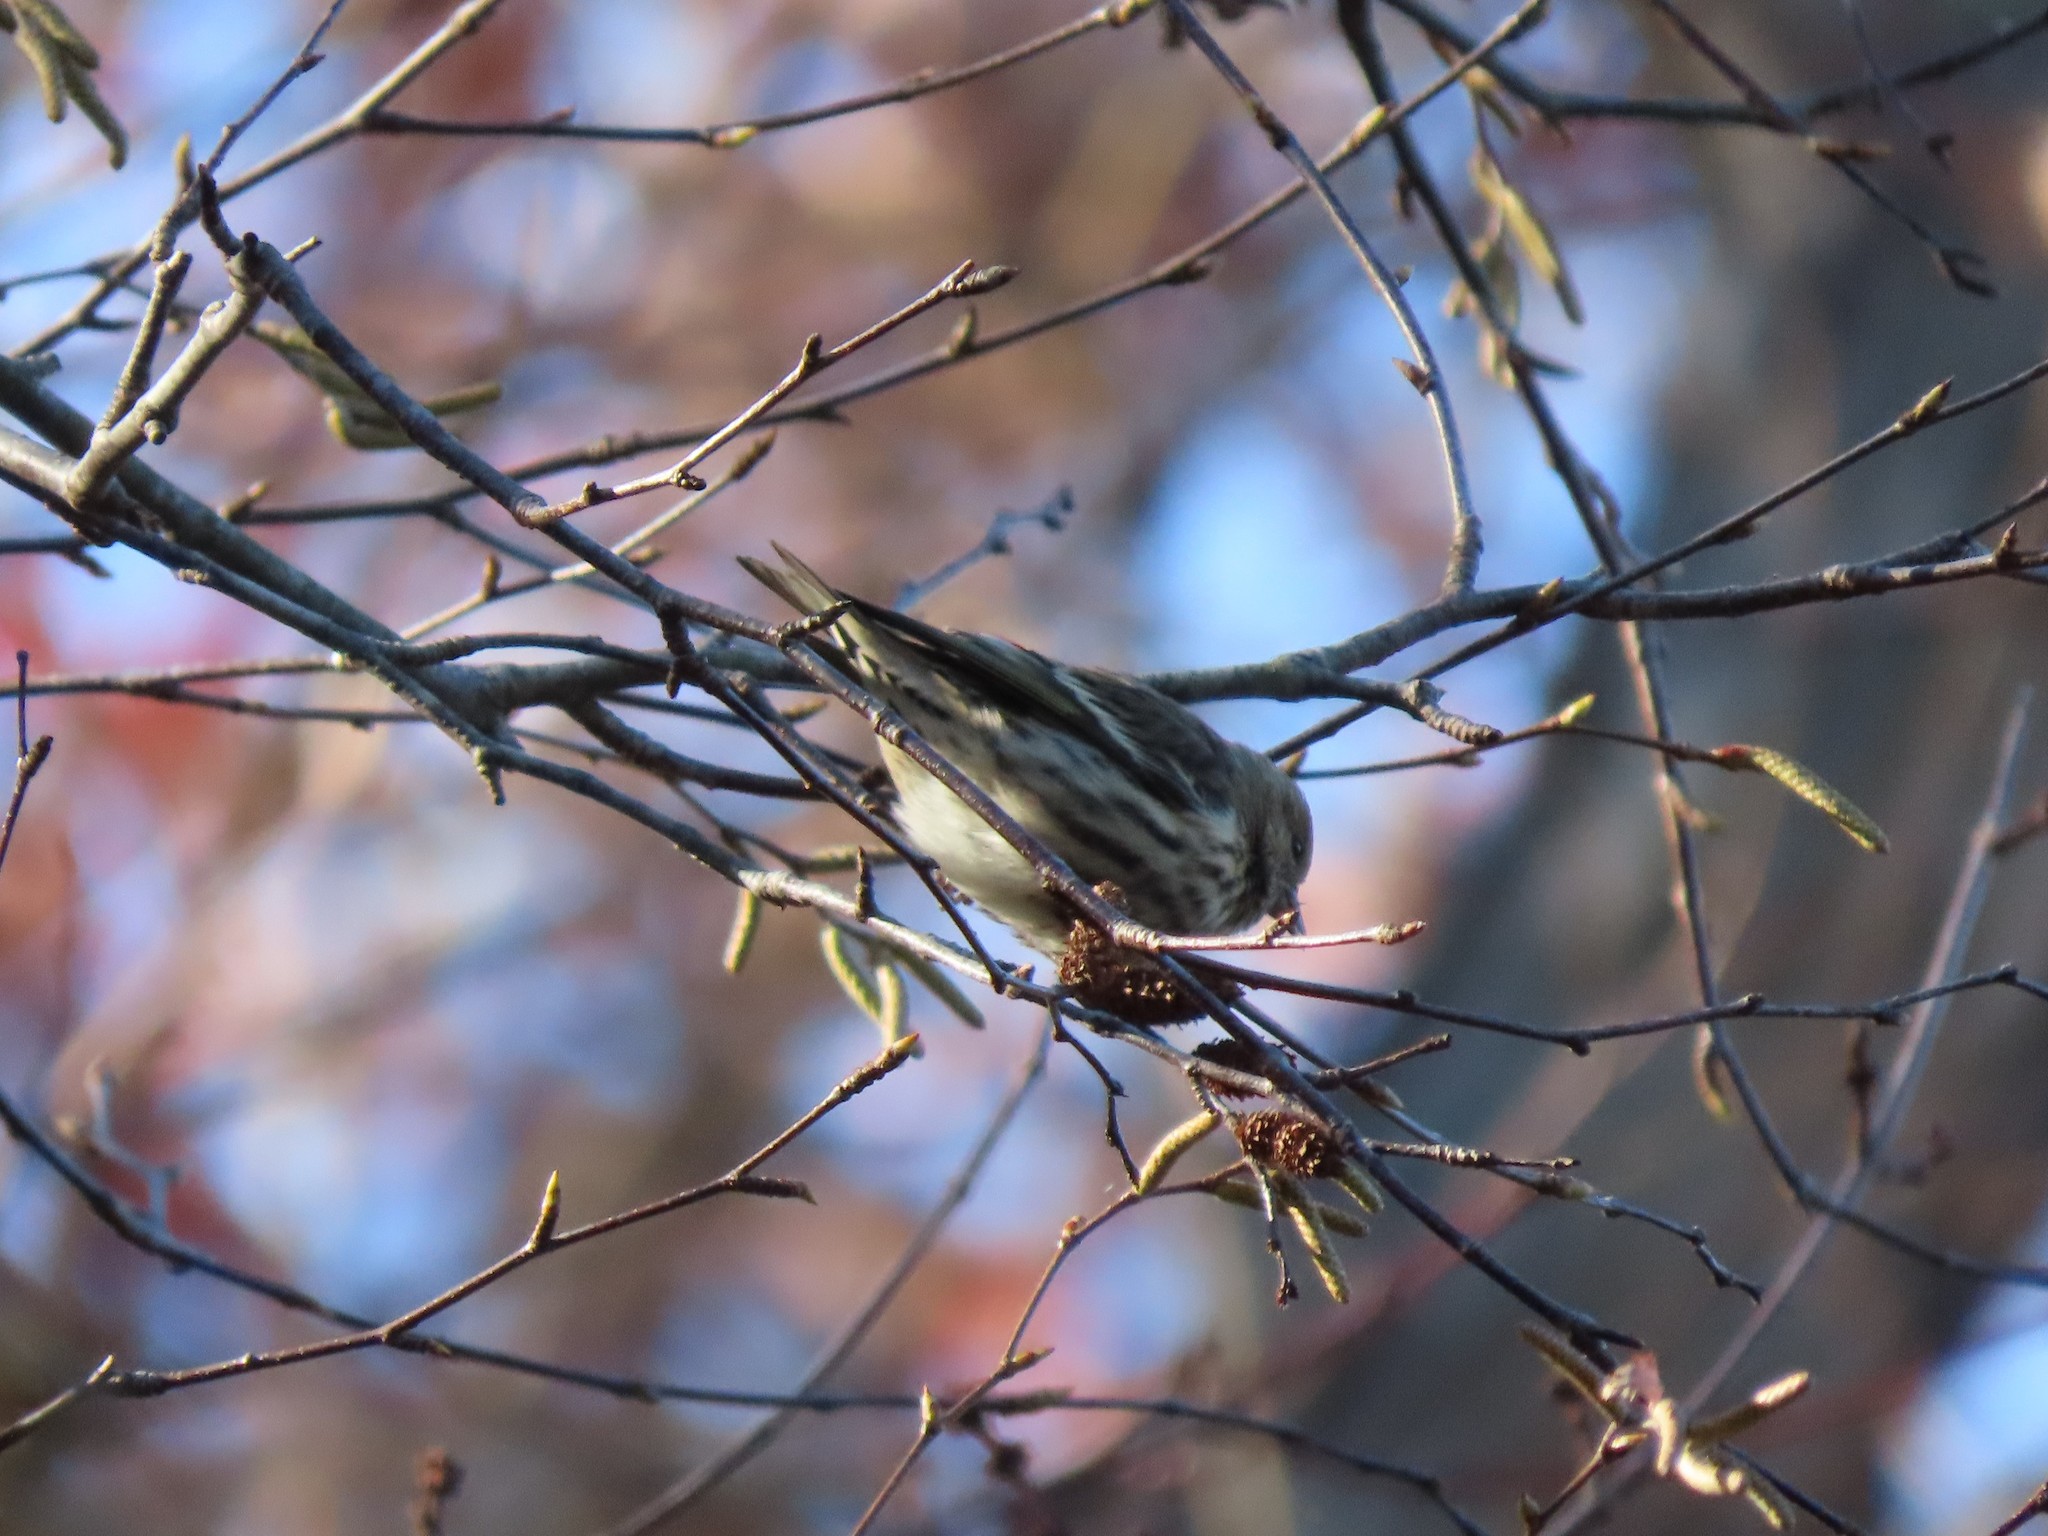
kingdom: Animalia
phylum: Chordata
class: Aves
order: Passeriformes
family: Fringillidae
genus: Spinus
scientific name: Spinus pinus
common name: Pine siskin
